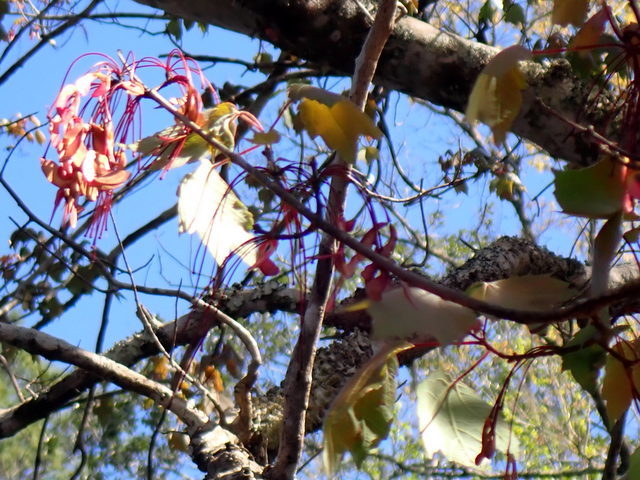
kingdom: Plantae
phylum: Tracheophyta
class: Magnoliopsida
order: Sapindales
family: Sapindaceae
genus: Acer
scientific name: Acer rubrum
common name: Red maple
